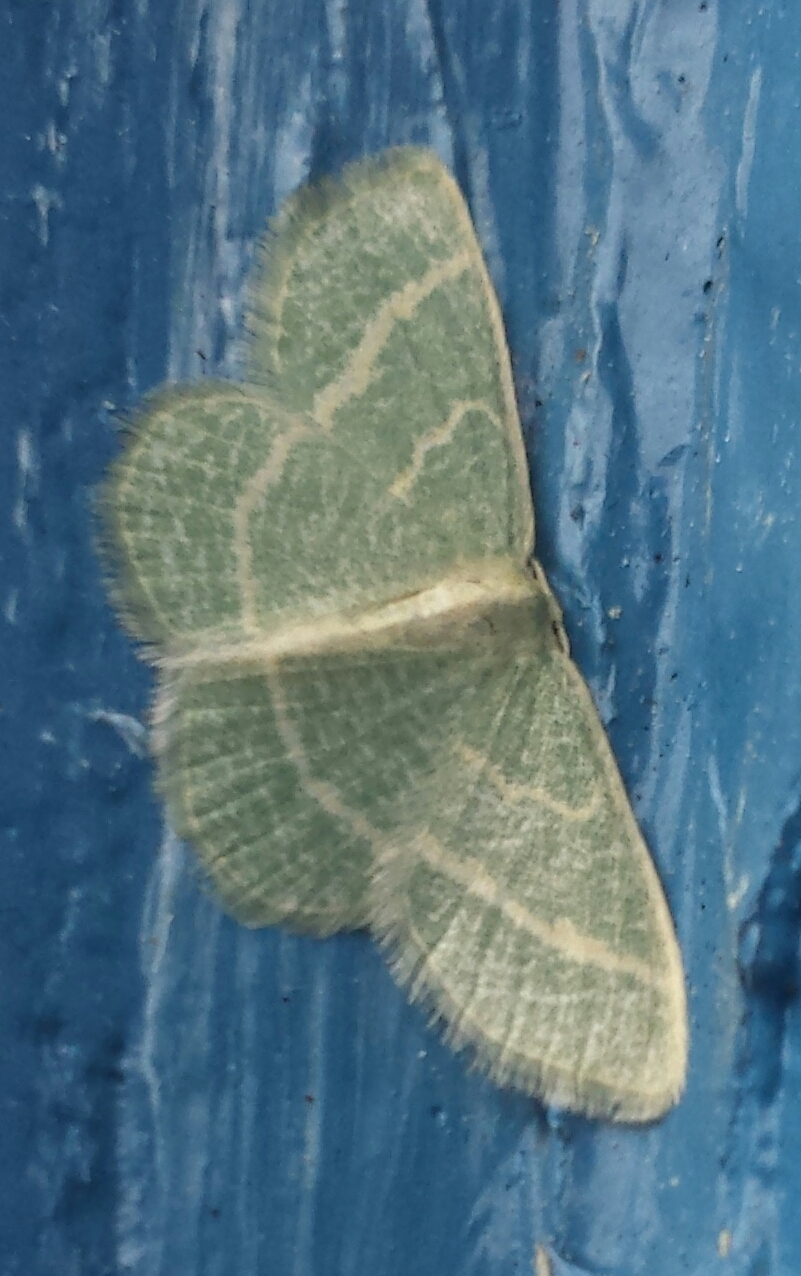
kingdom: Animalia
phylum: Arthropoda
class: Insecta
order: Lepidoptera
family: Geometridae
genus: Chlorochlamys
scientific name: Chlorochlamys chloroleucaria
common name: Blackberry looper
